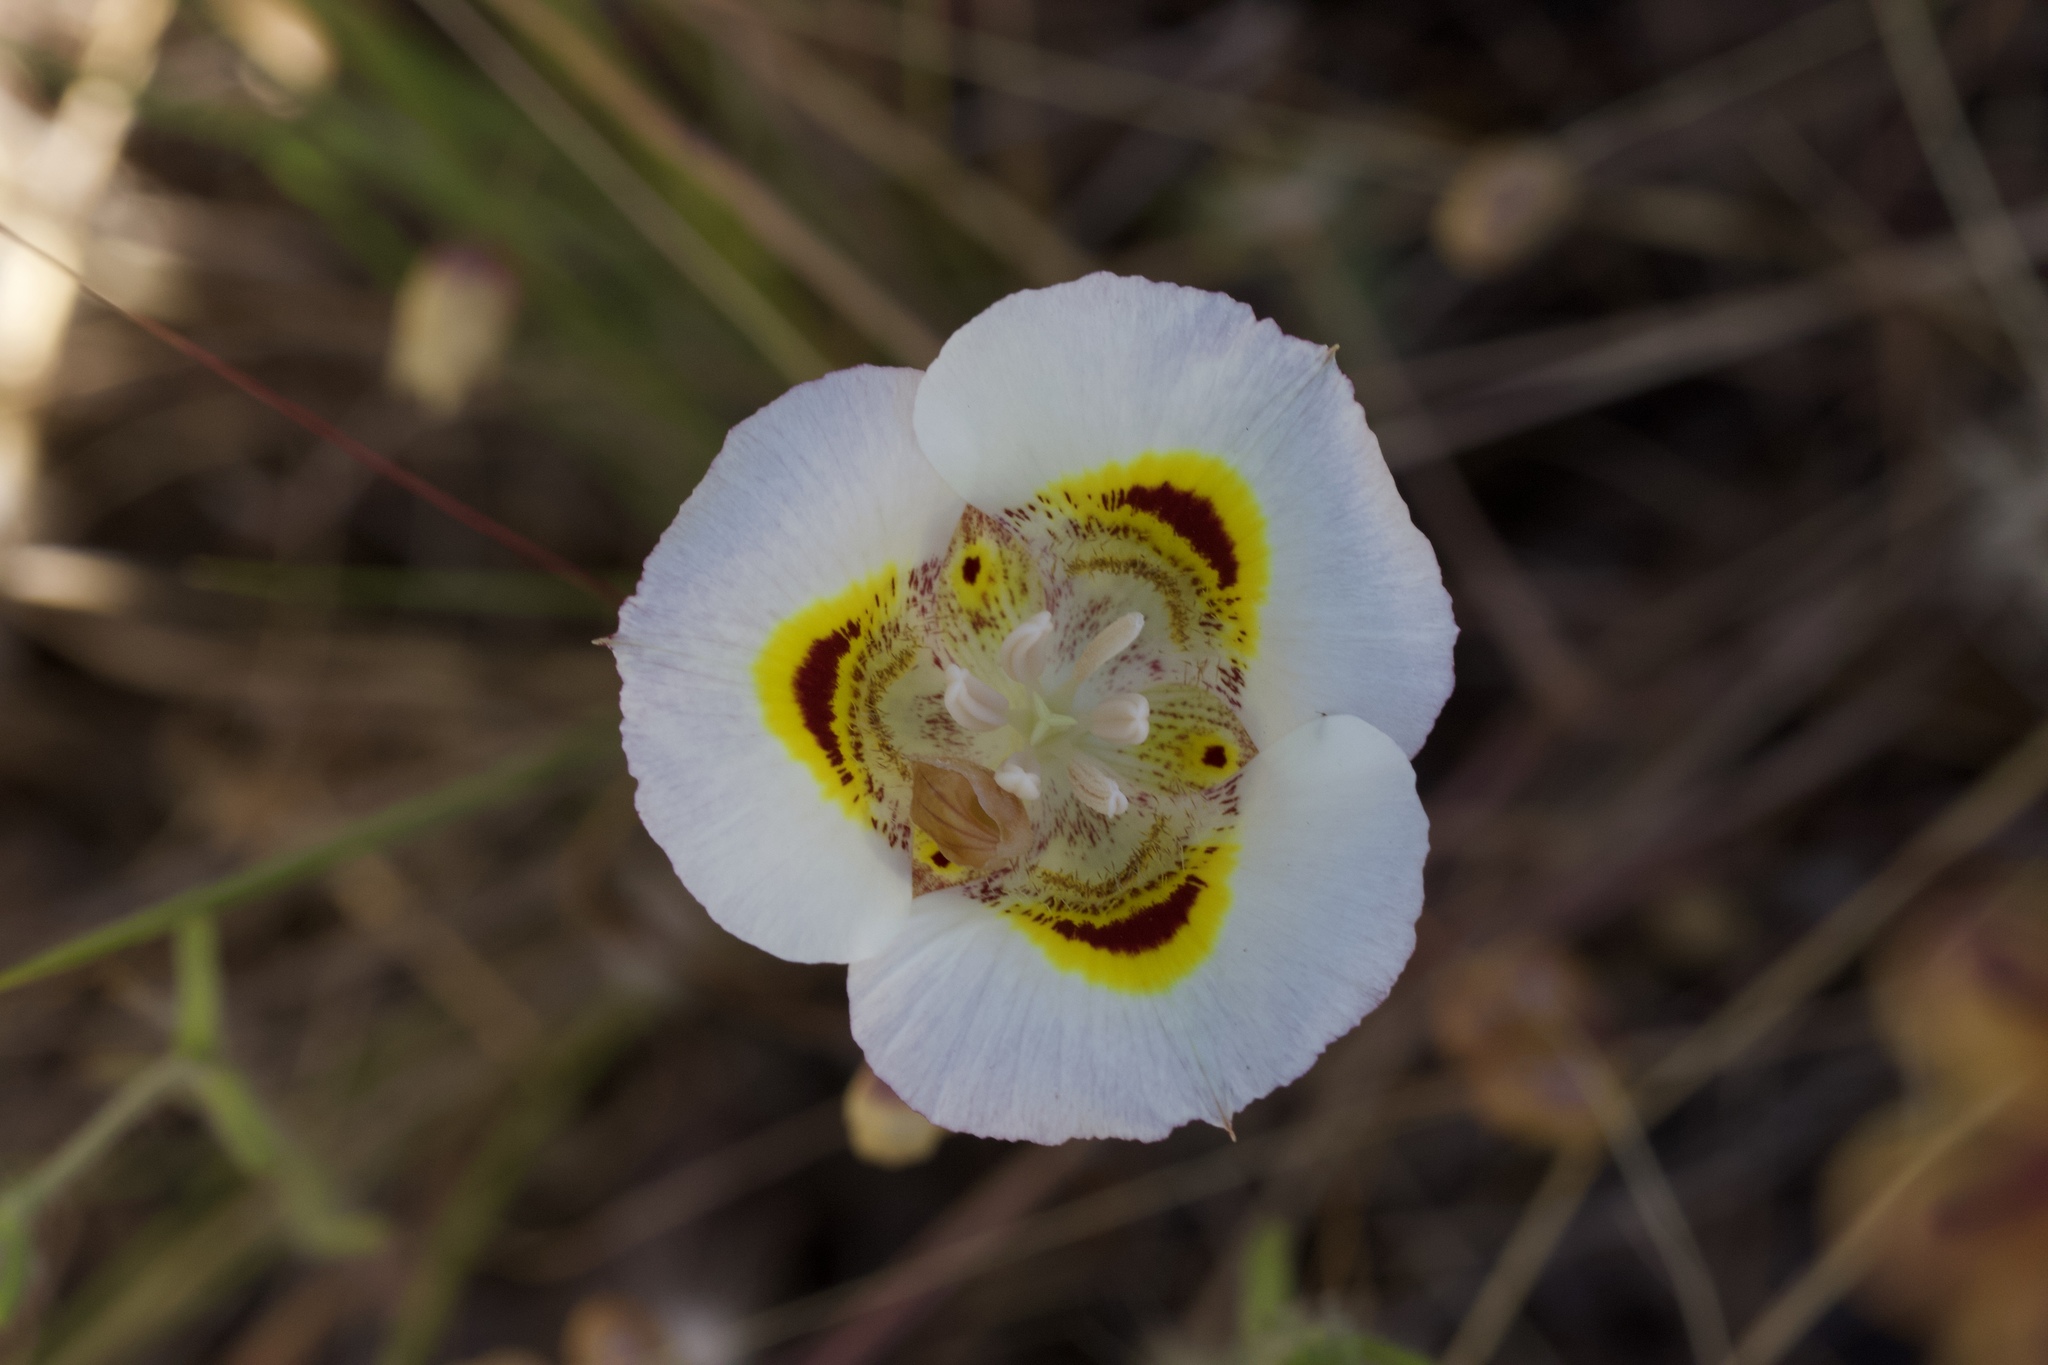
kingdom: Plantae
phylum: Tracheophyta
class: Liliopsida
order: Liliales
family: Liliaceae
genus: Calochortus
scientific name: Calochortus superbus
